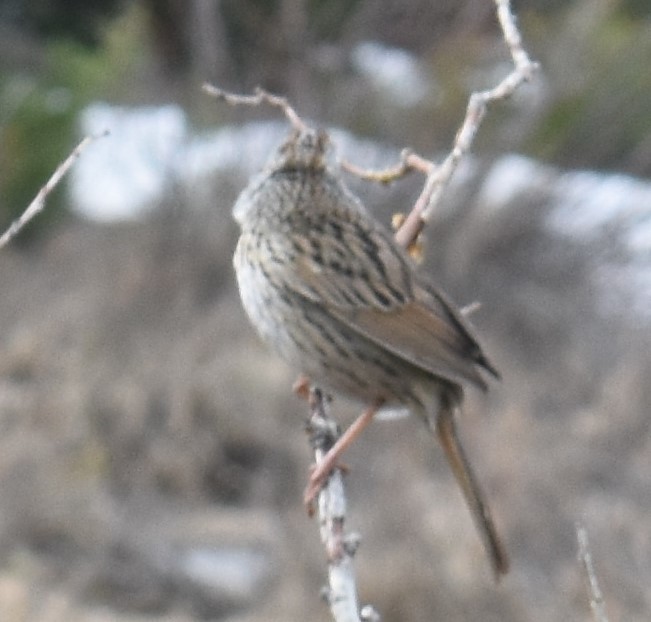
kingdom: Animalia
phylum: Chordata
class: Aves
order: Passeriformes
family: Passerellidae
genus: Melospiza
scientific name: Melospiza lincolnii
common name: Lincoln's sparrow
